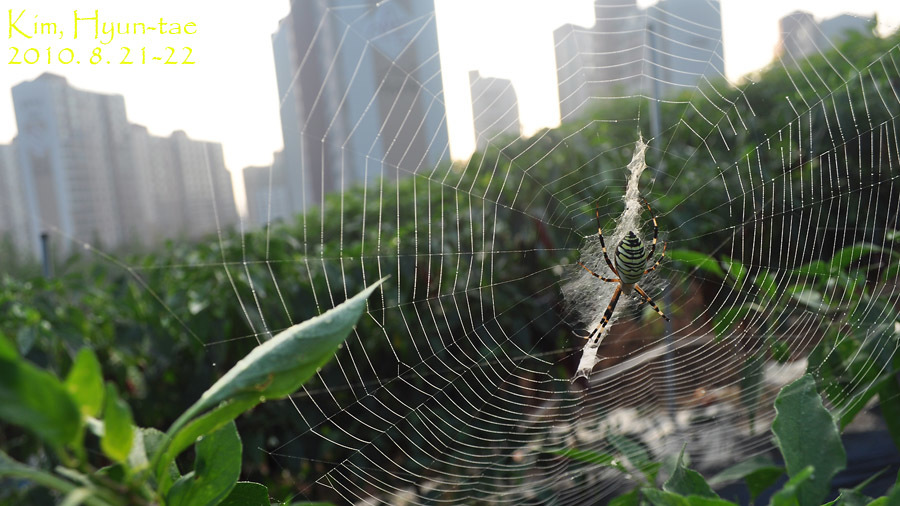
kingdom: Animalia
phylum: Arthropoda
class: Arachnida
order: Araneae
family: Araneidae
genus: Argiope
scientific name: Argiope bruennichi
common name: Wasp spider
